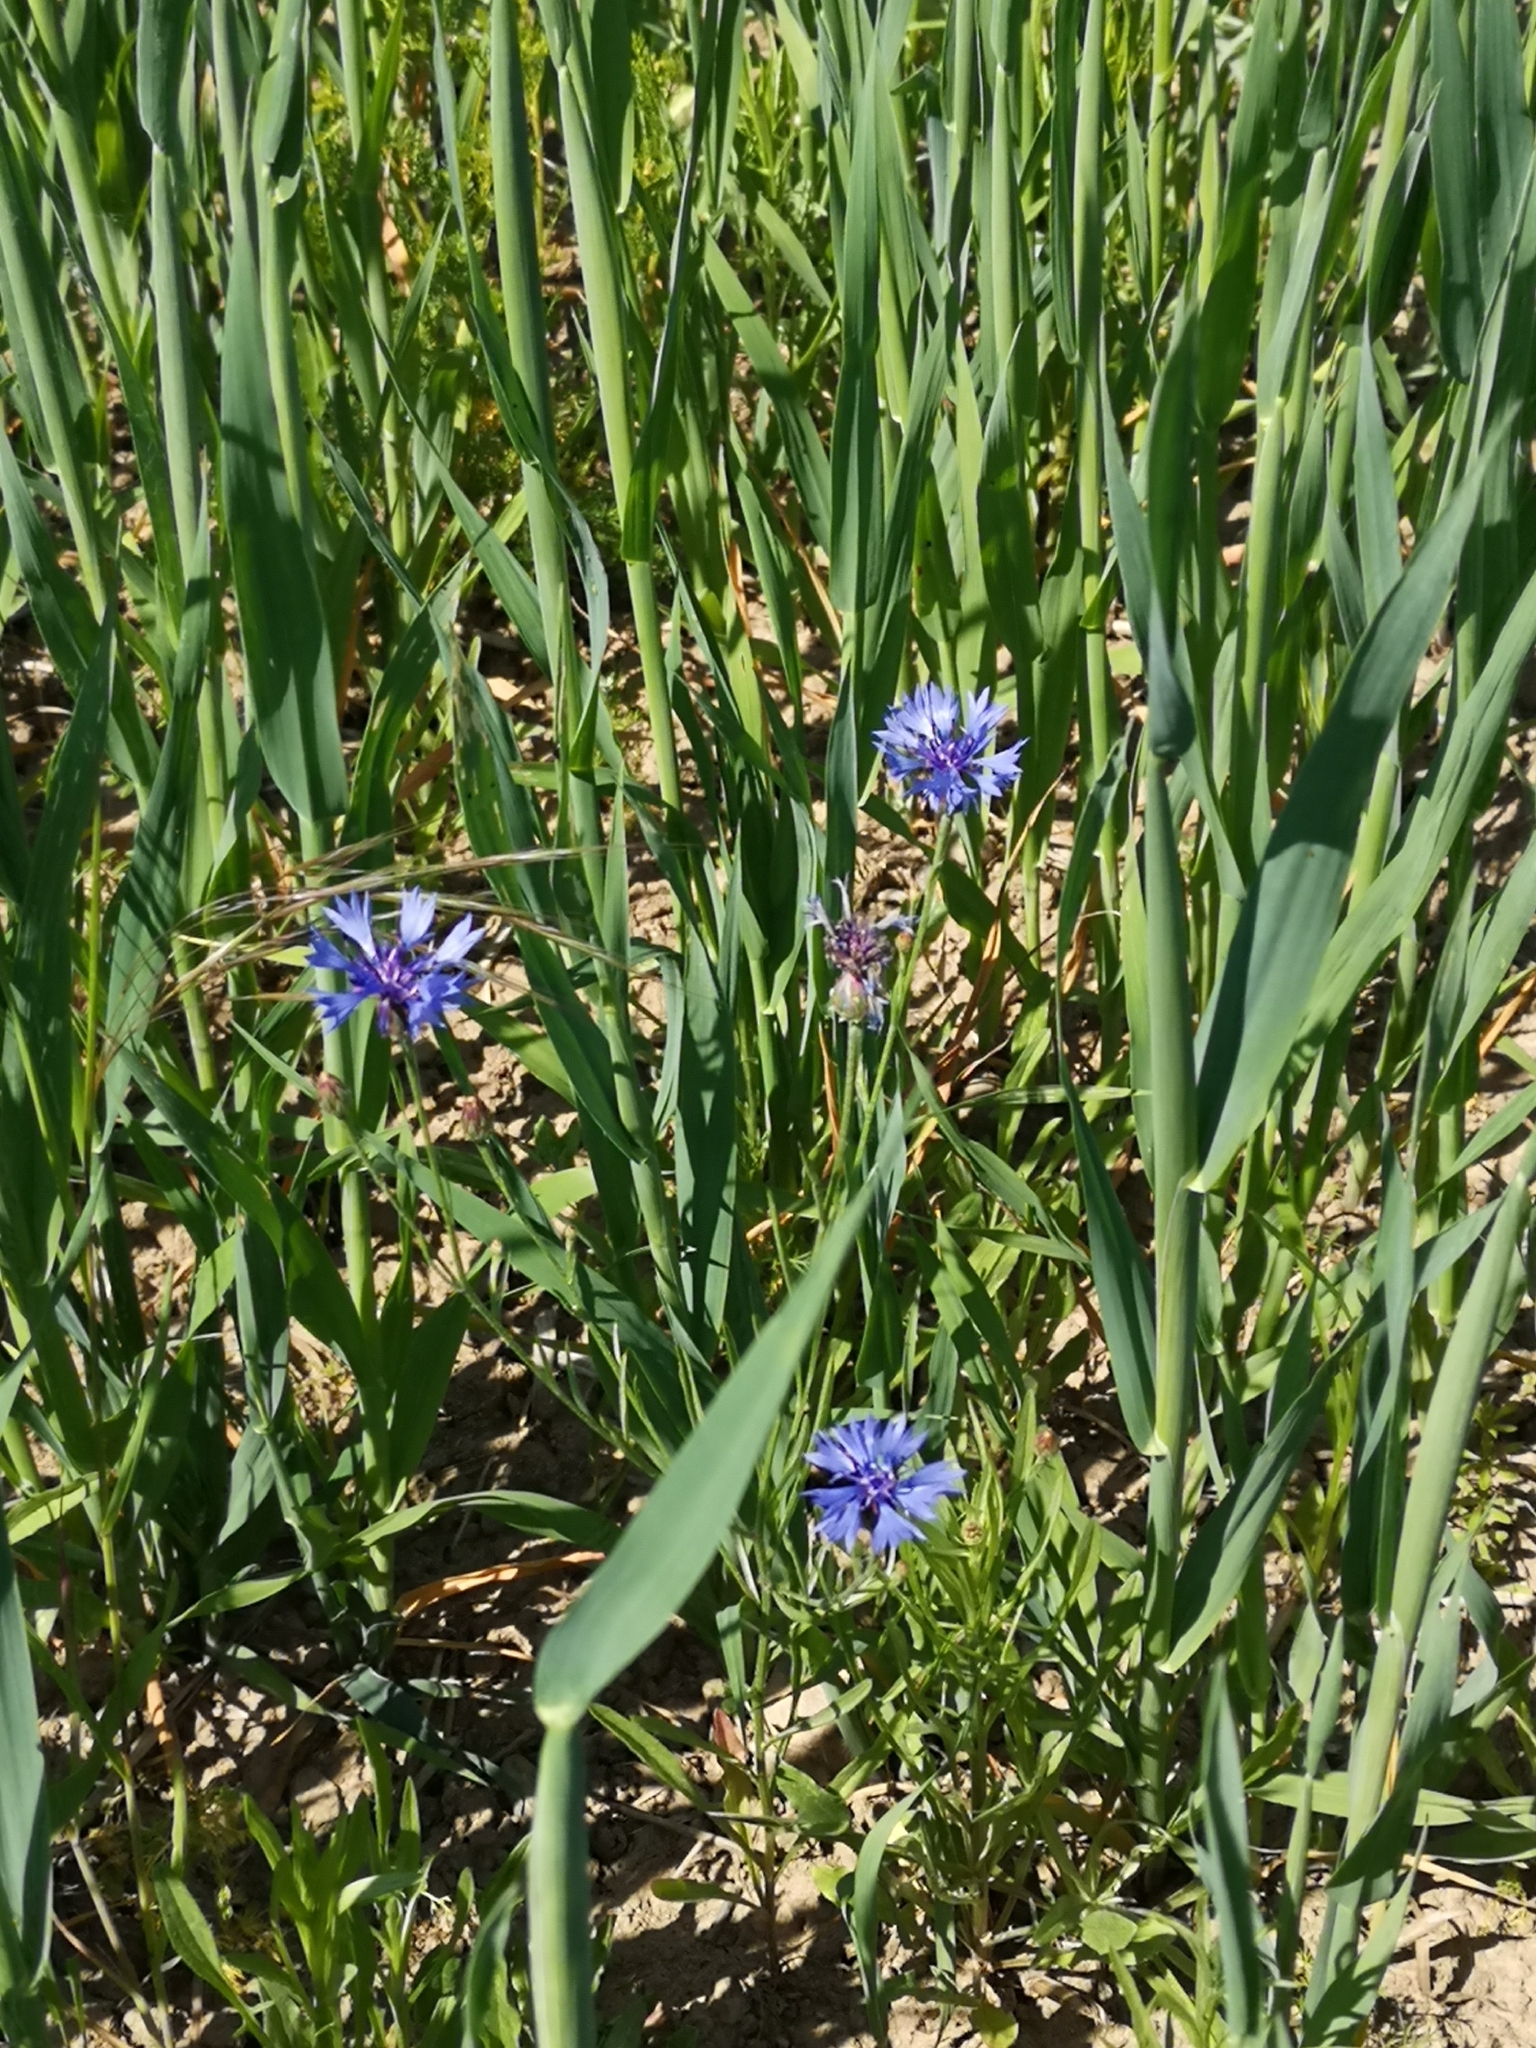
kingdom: Plantae
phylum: Tracheophyta
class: Magnoliopsida
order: Asterales
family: Asteraceae
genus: Centaurea
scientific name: Centaurea cyanus
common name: Cornflower
